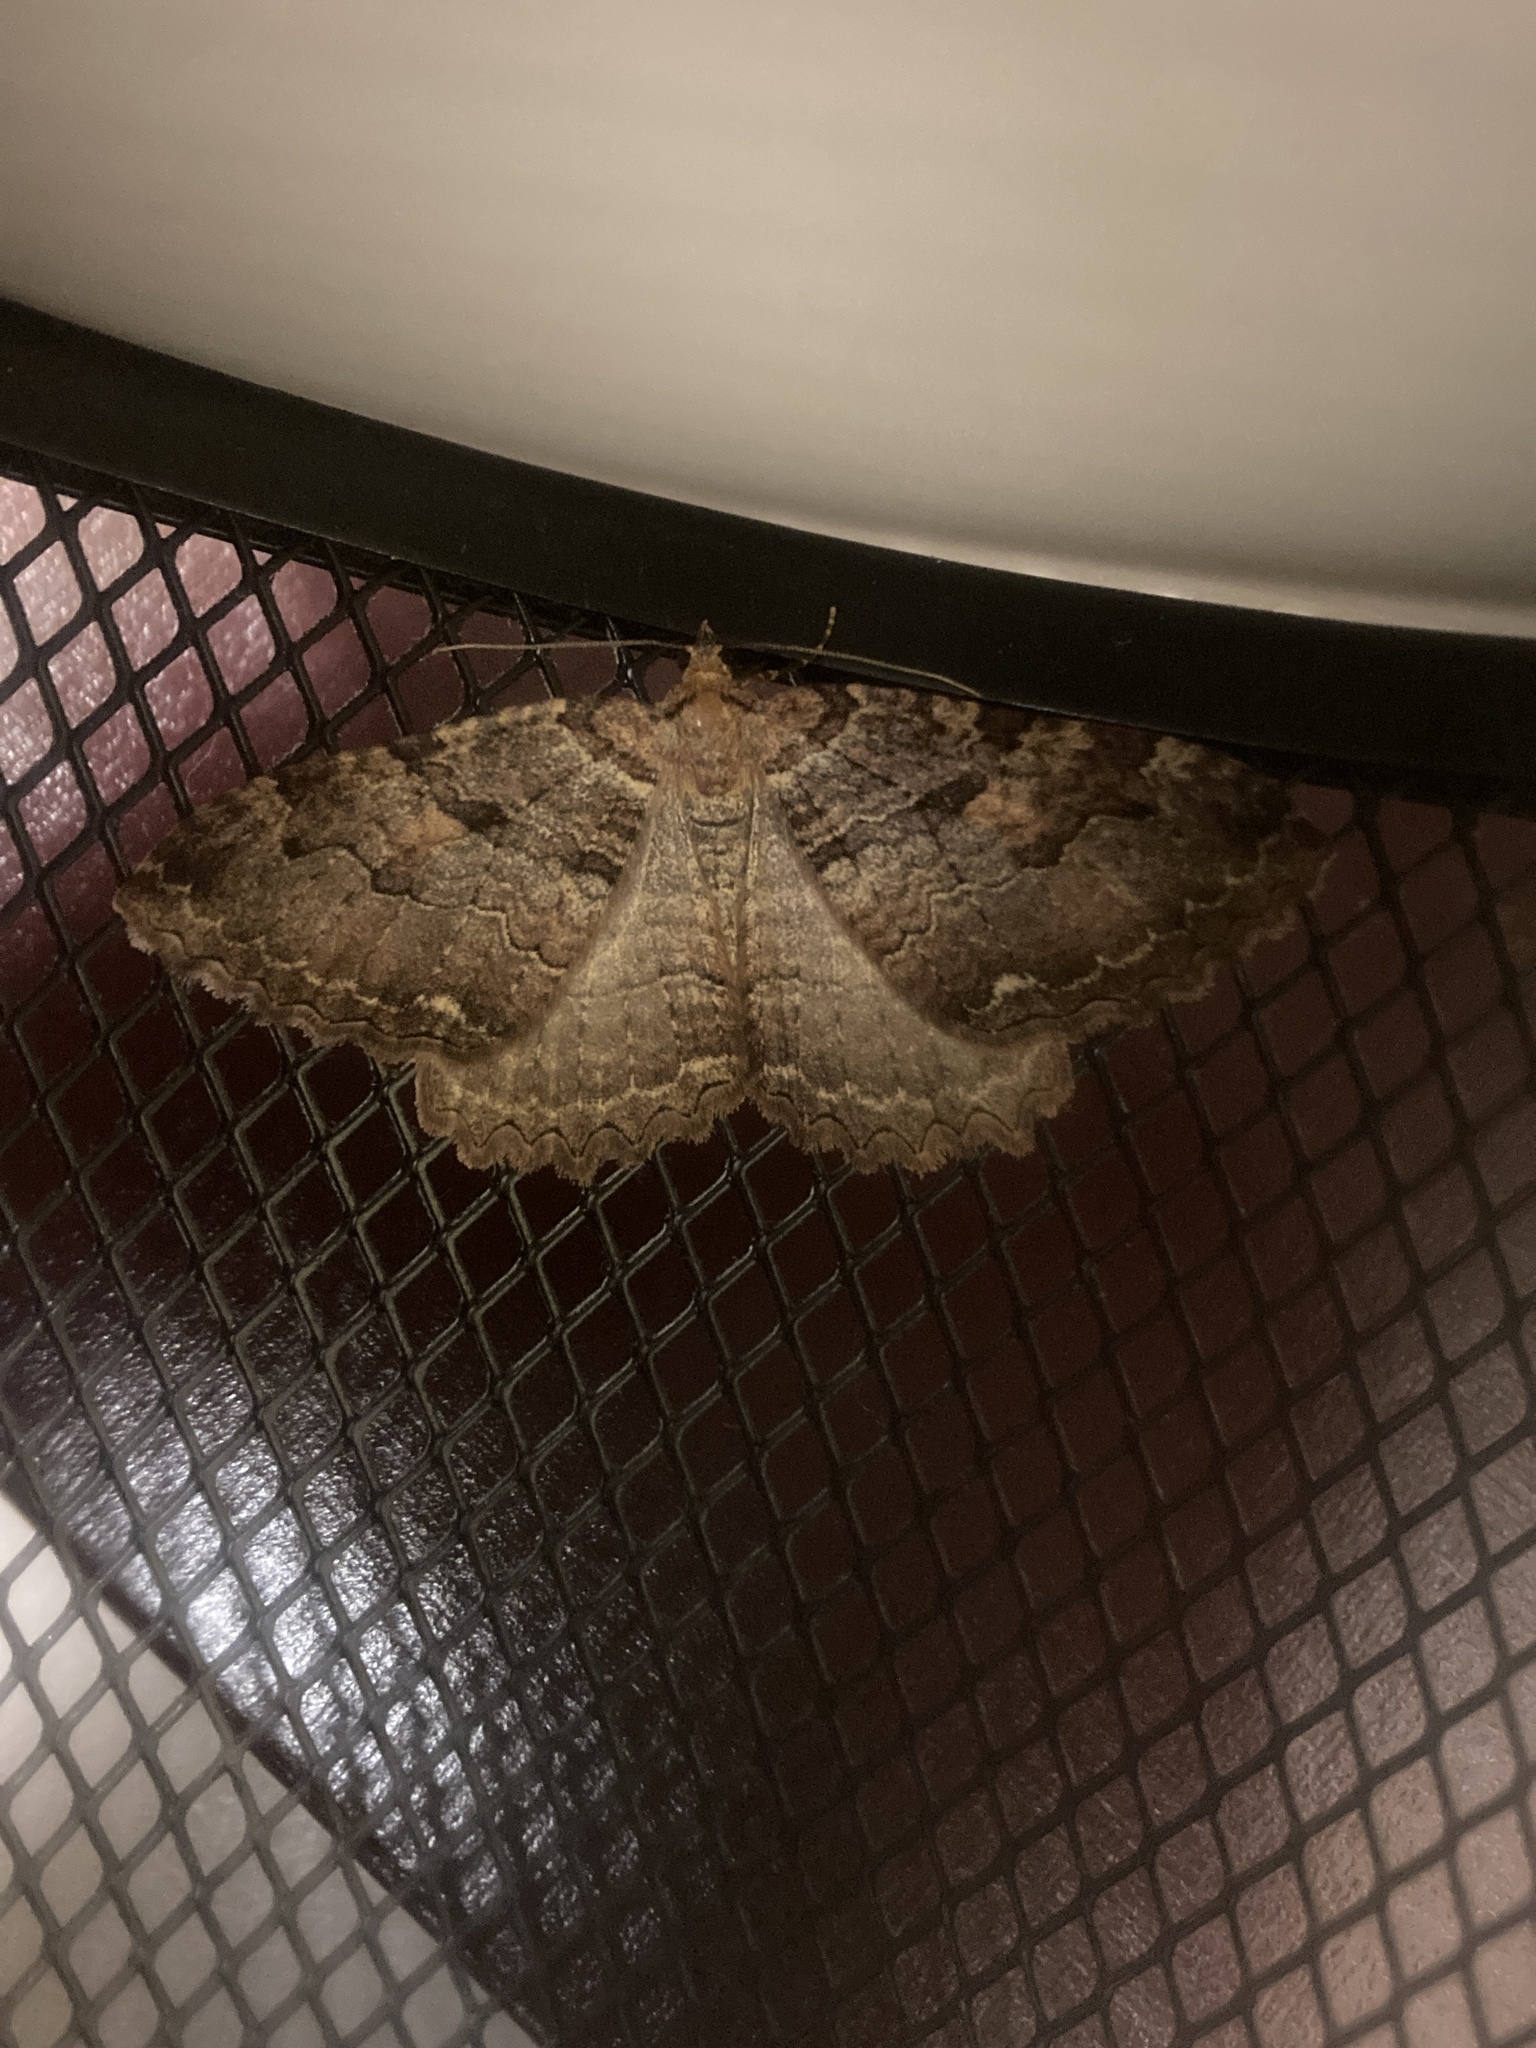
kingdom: Animalia
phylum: Arthropoda
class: Insecta
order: Lepidoptera
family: Geometridae
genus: Triphosa
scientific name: Triphosa haesitata
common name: Tissue moth
